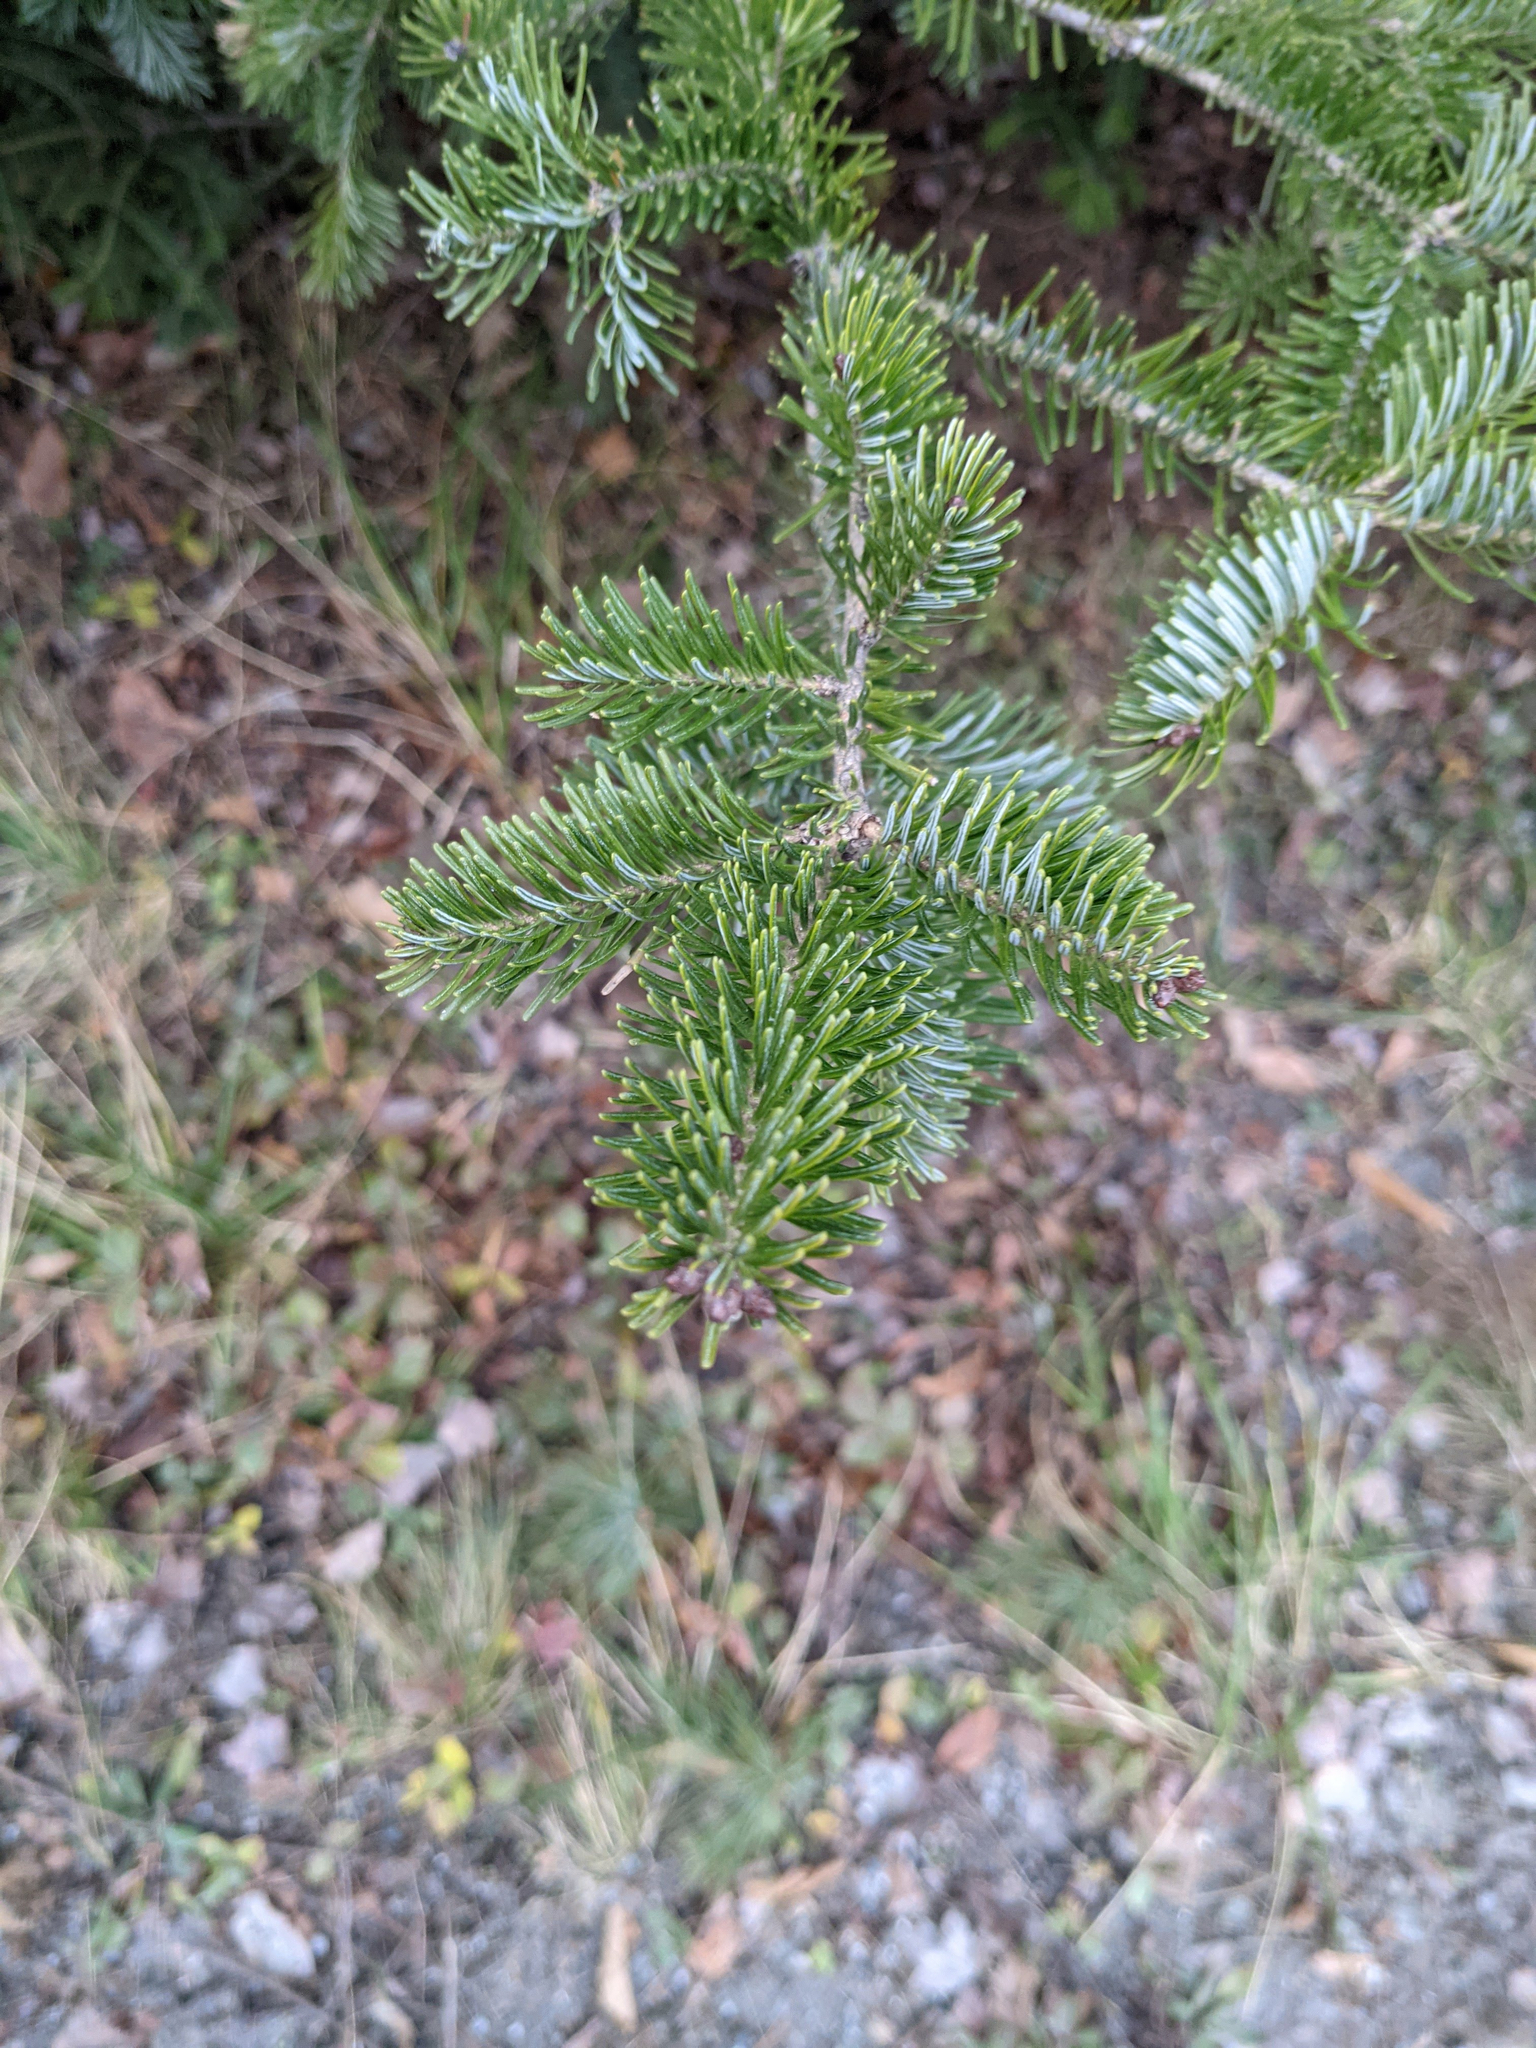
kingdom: Plantae
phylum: Tracheophyta
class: Pinopsida
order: Pinales
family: Pinaceae
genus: Abies
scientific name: Abies balsamea
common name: Balsam fir
